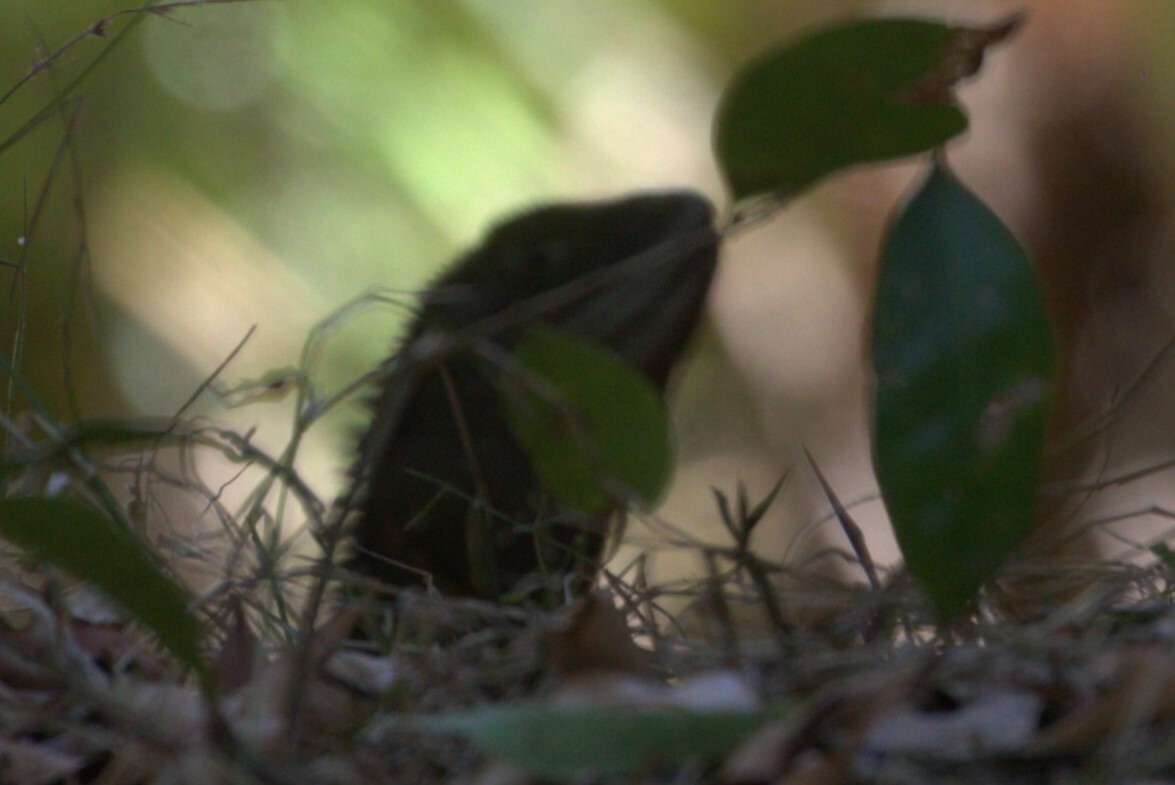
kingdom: Animalia
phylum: Chordata
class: Squamata
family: Agamidae
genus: Intellagama
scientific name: Intellagama lesueurii
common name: Eastern water dragon
